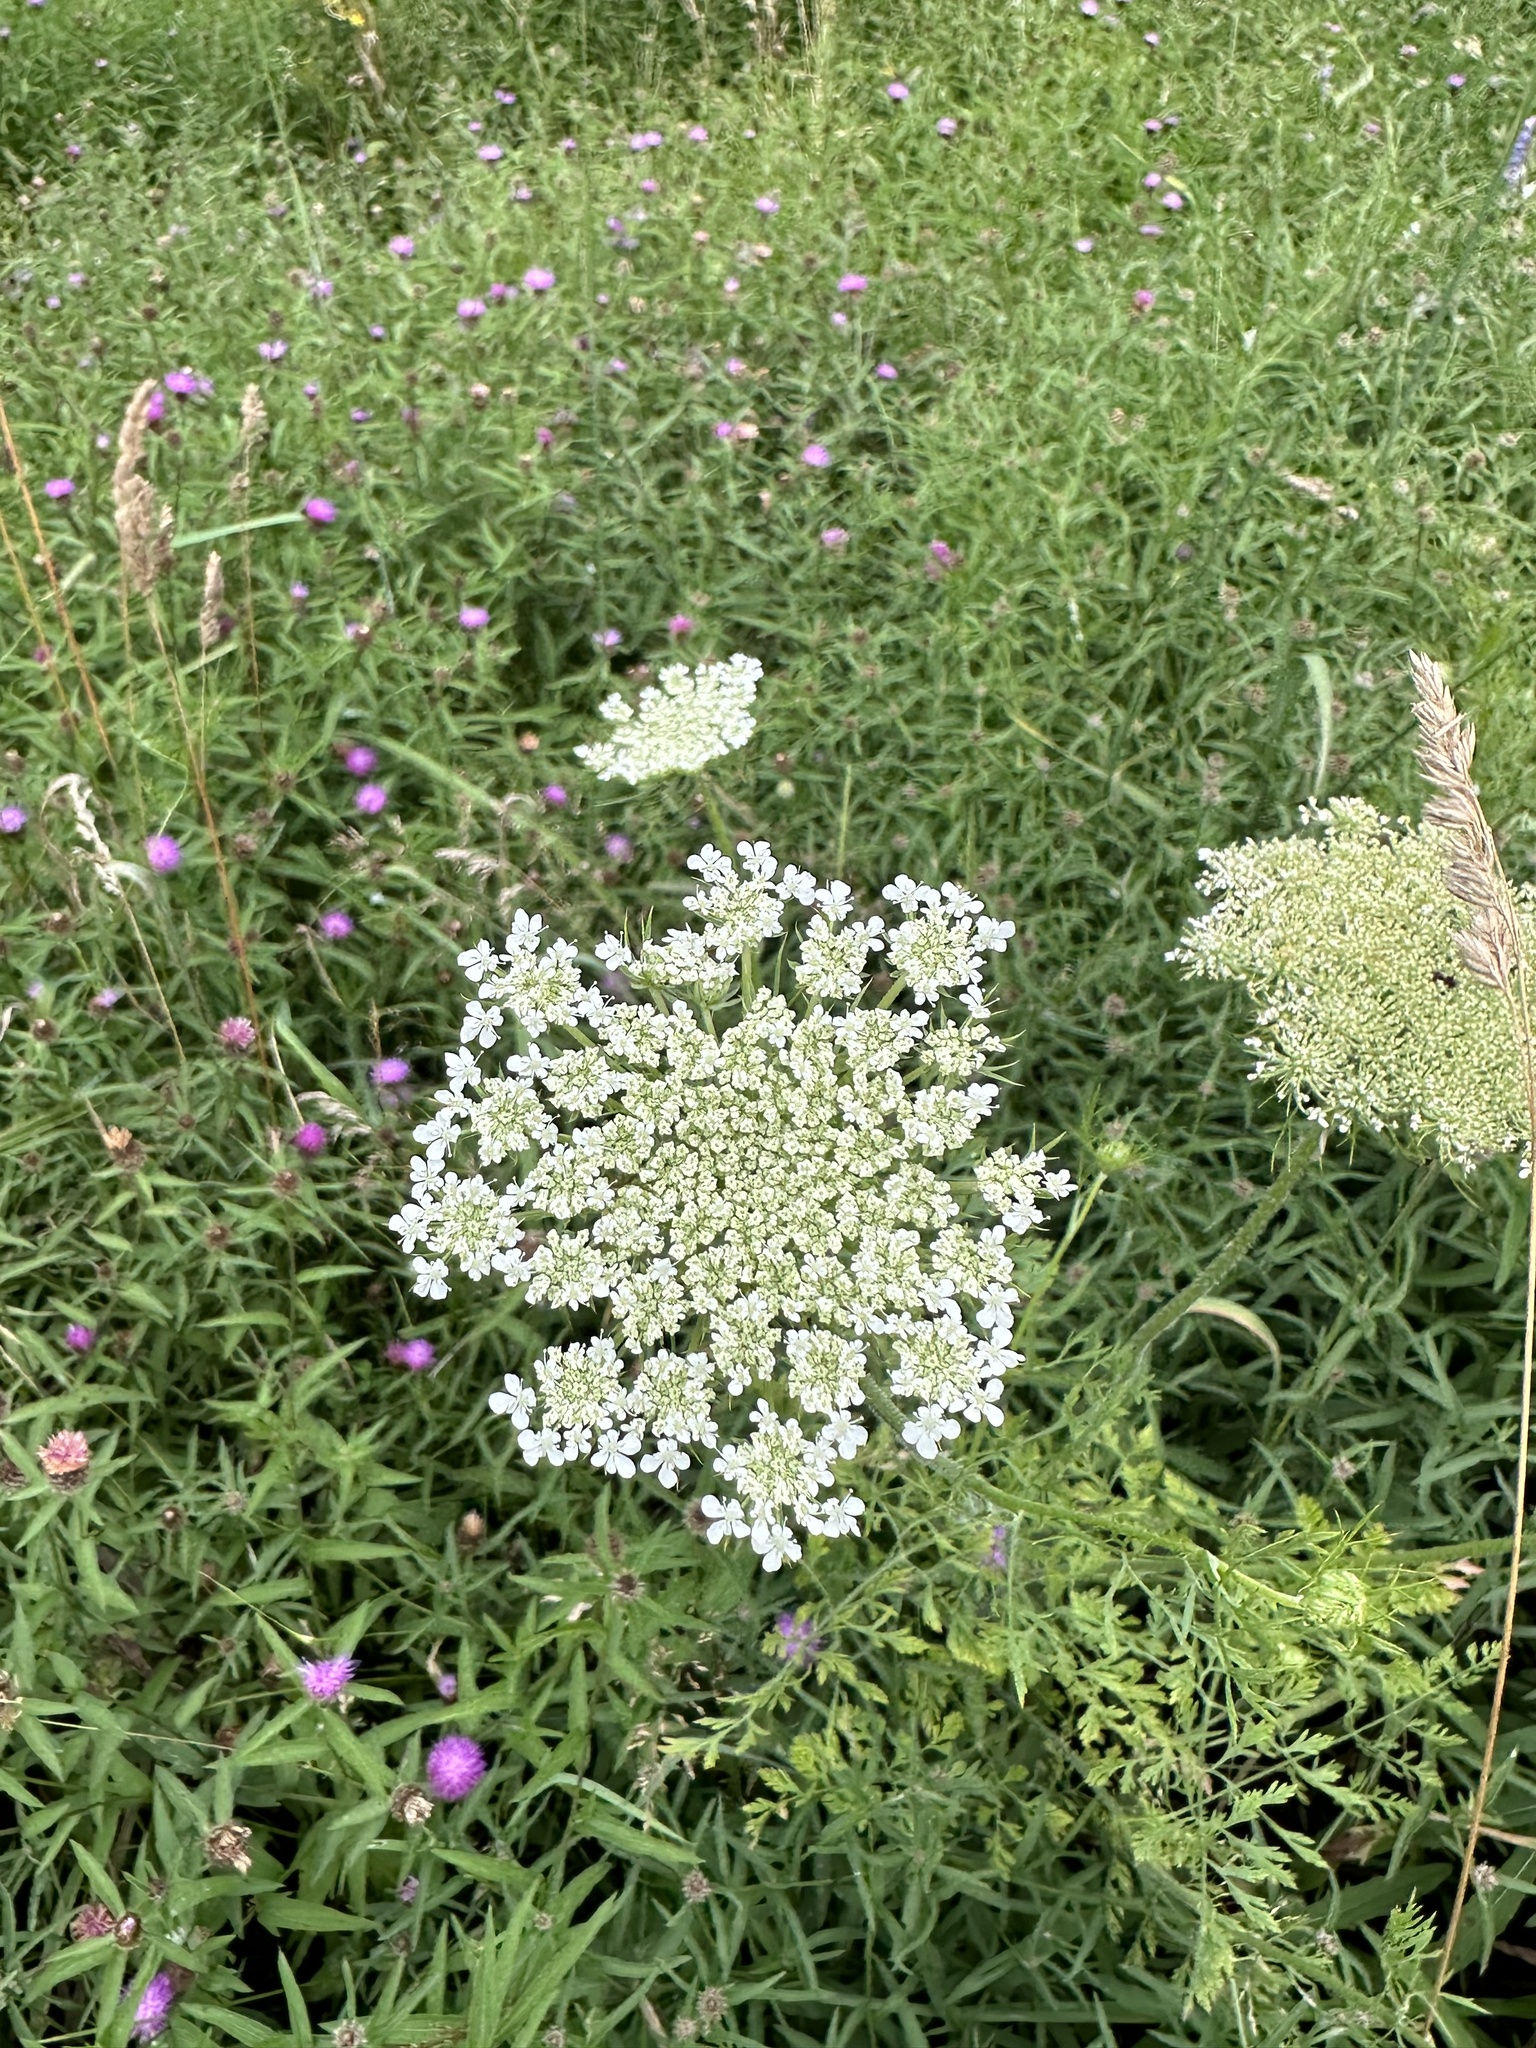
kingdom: Plantae
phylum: Tracheophyta
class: Magnoliopsida
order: Apiales
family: Apiaceae
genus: Daucus
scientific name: Daucus carota
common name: Wild carrot
